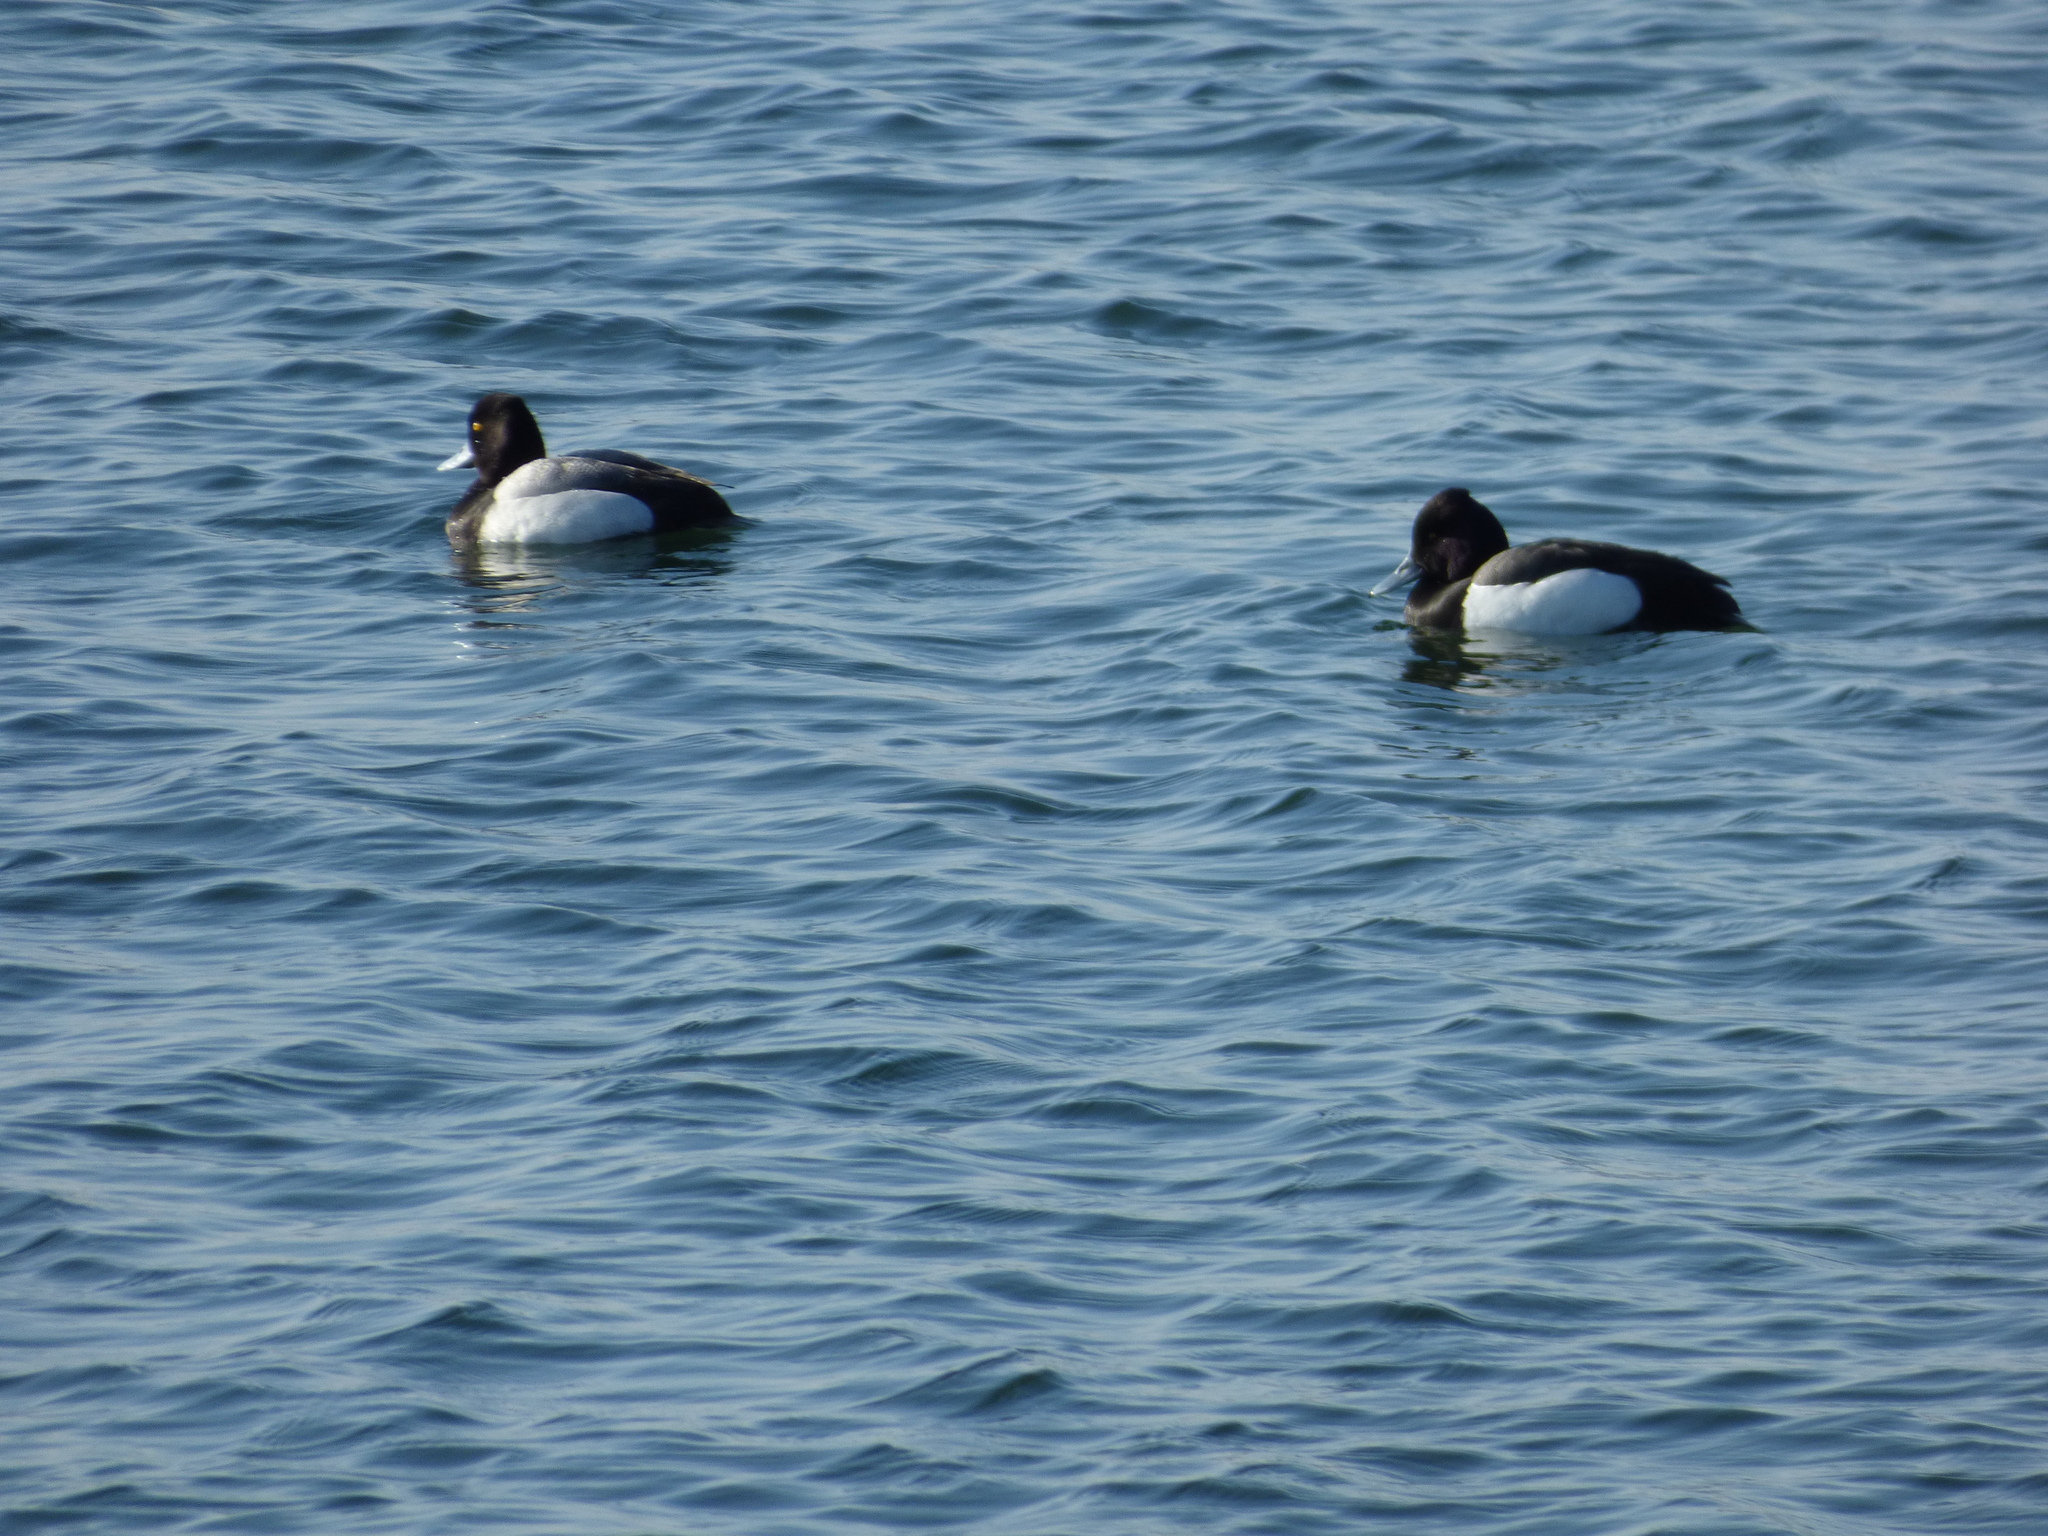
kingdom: Animalia
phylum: Chordata
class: Aves
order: Anseriformes
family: Anatidae
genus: Aythya
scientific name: Aythya affinis
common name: Lesser scaup
